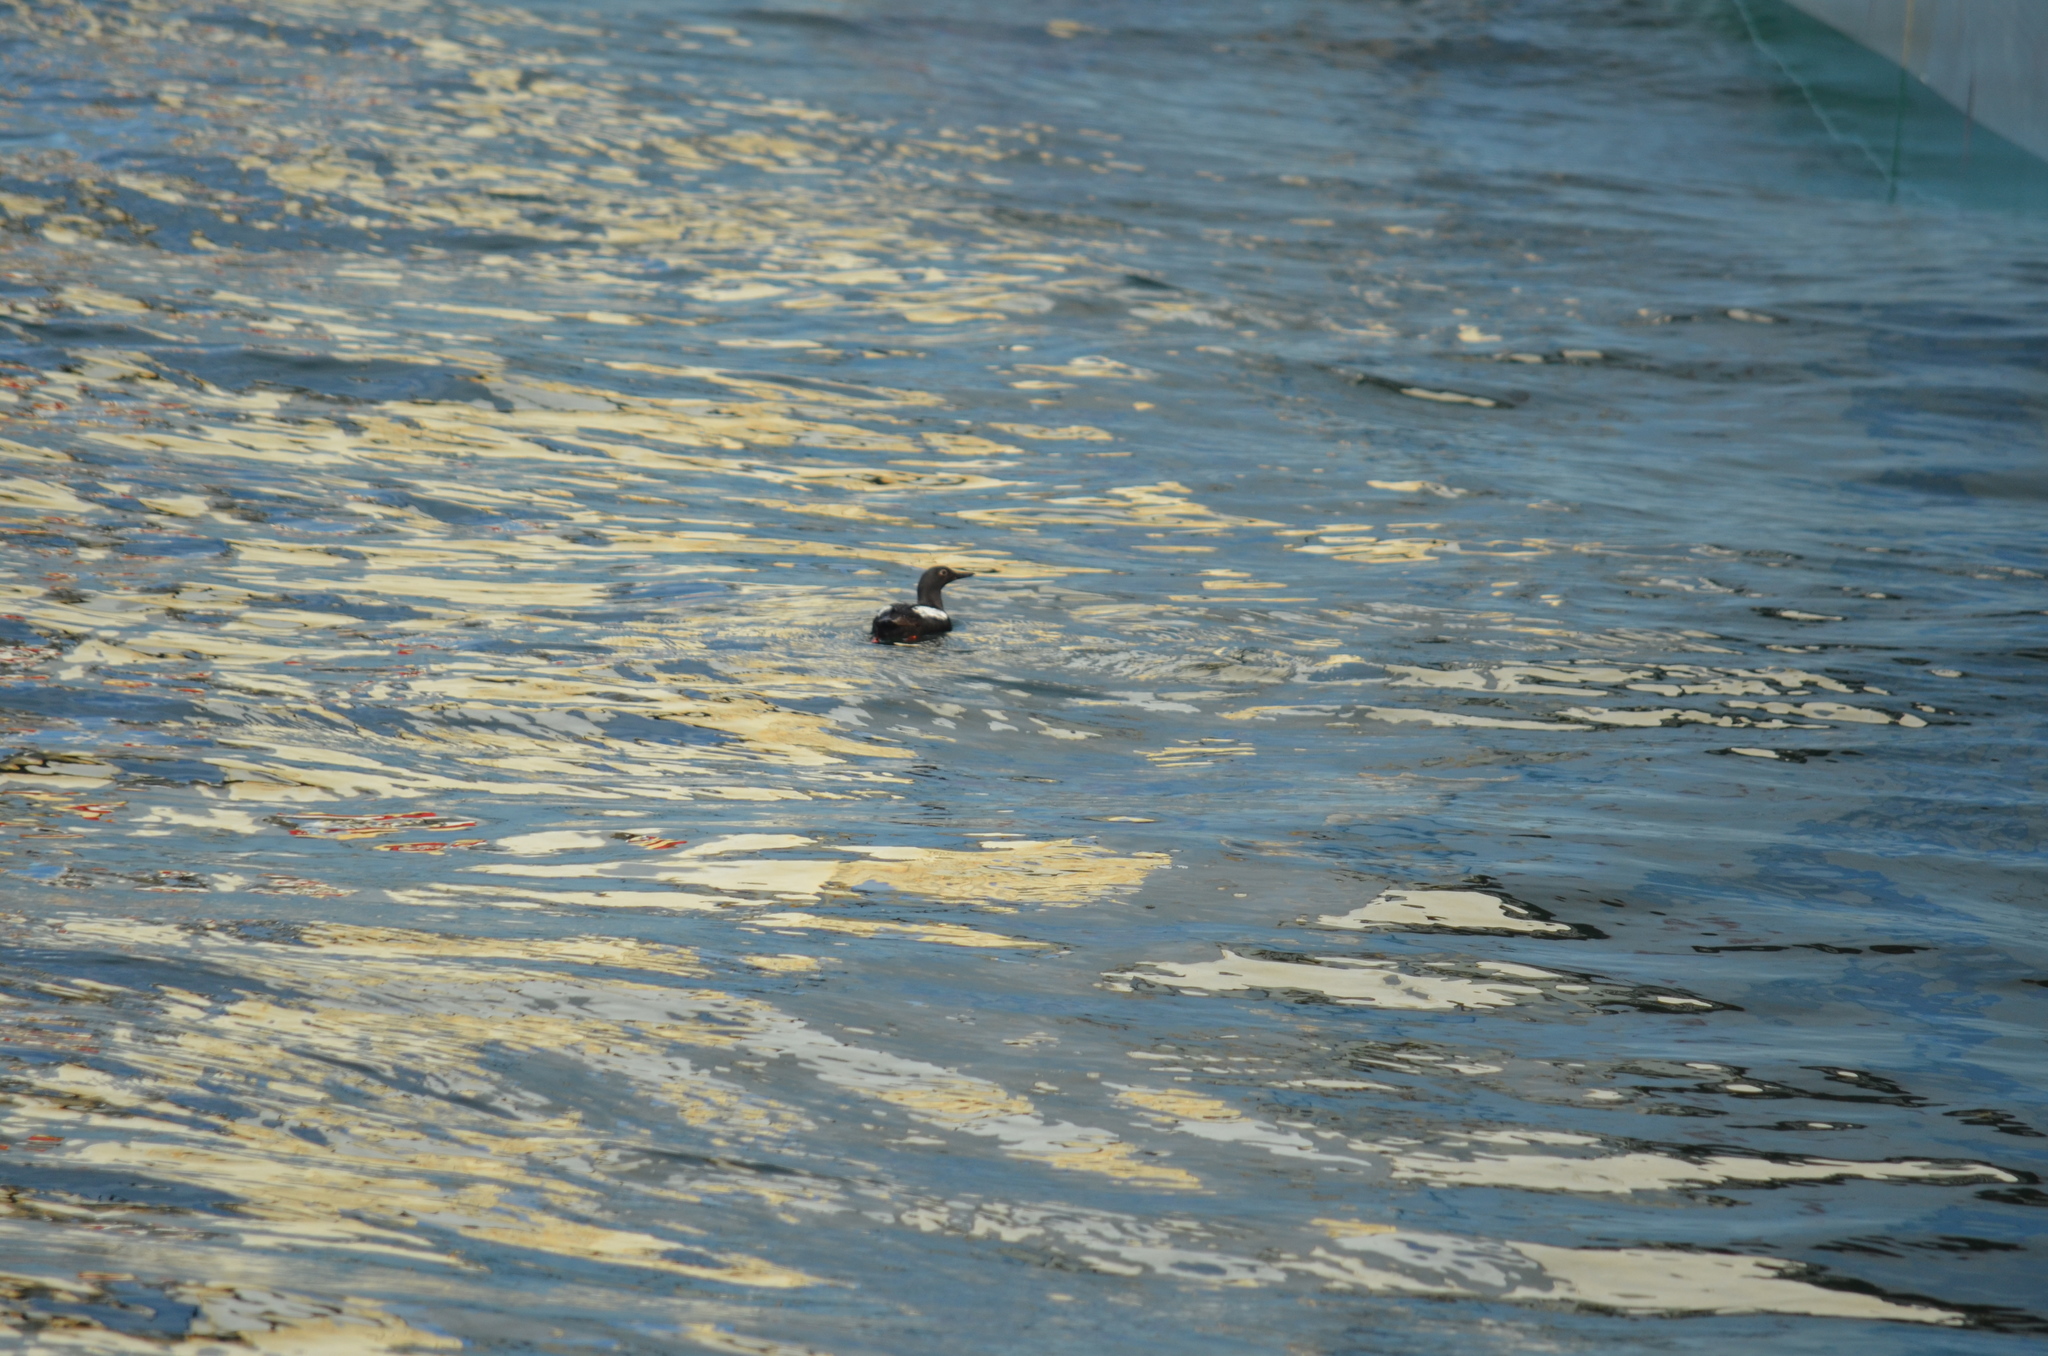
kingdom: Animalia
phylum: Chordata
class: Aves
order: Charadriiformes
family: Alcidae
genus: Cepphus
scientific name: Cepphus columba
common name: Pigeon guillemot
